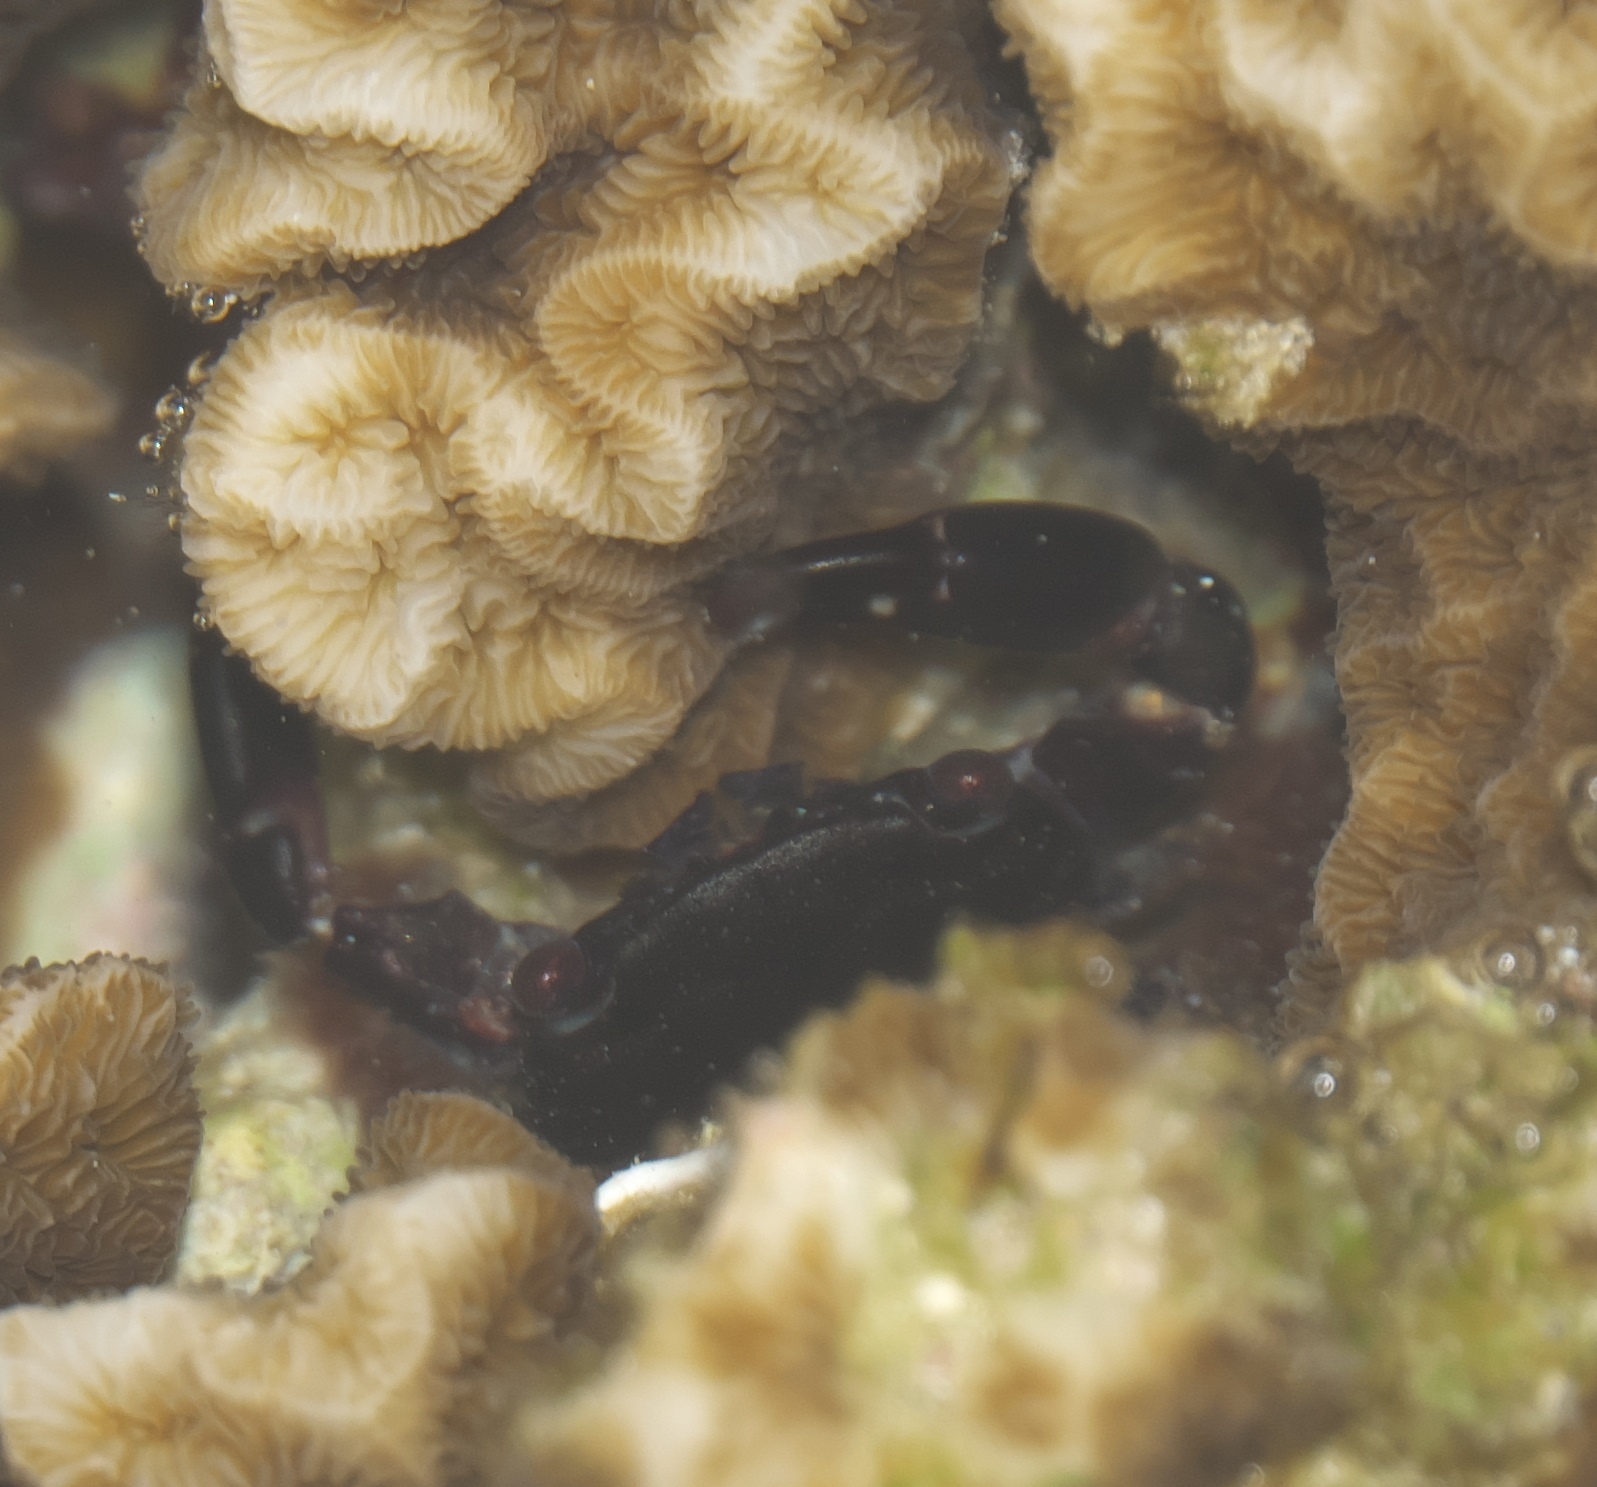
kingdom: Animalia
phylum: Arthropoda
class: Malacostraca
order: Decapoda
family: Xanthidae
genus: Chlorodiella
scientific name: Chlorodiella nigra
